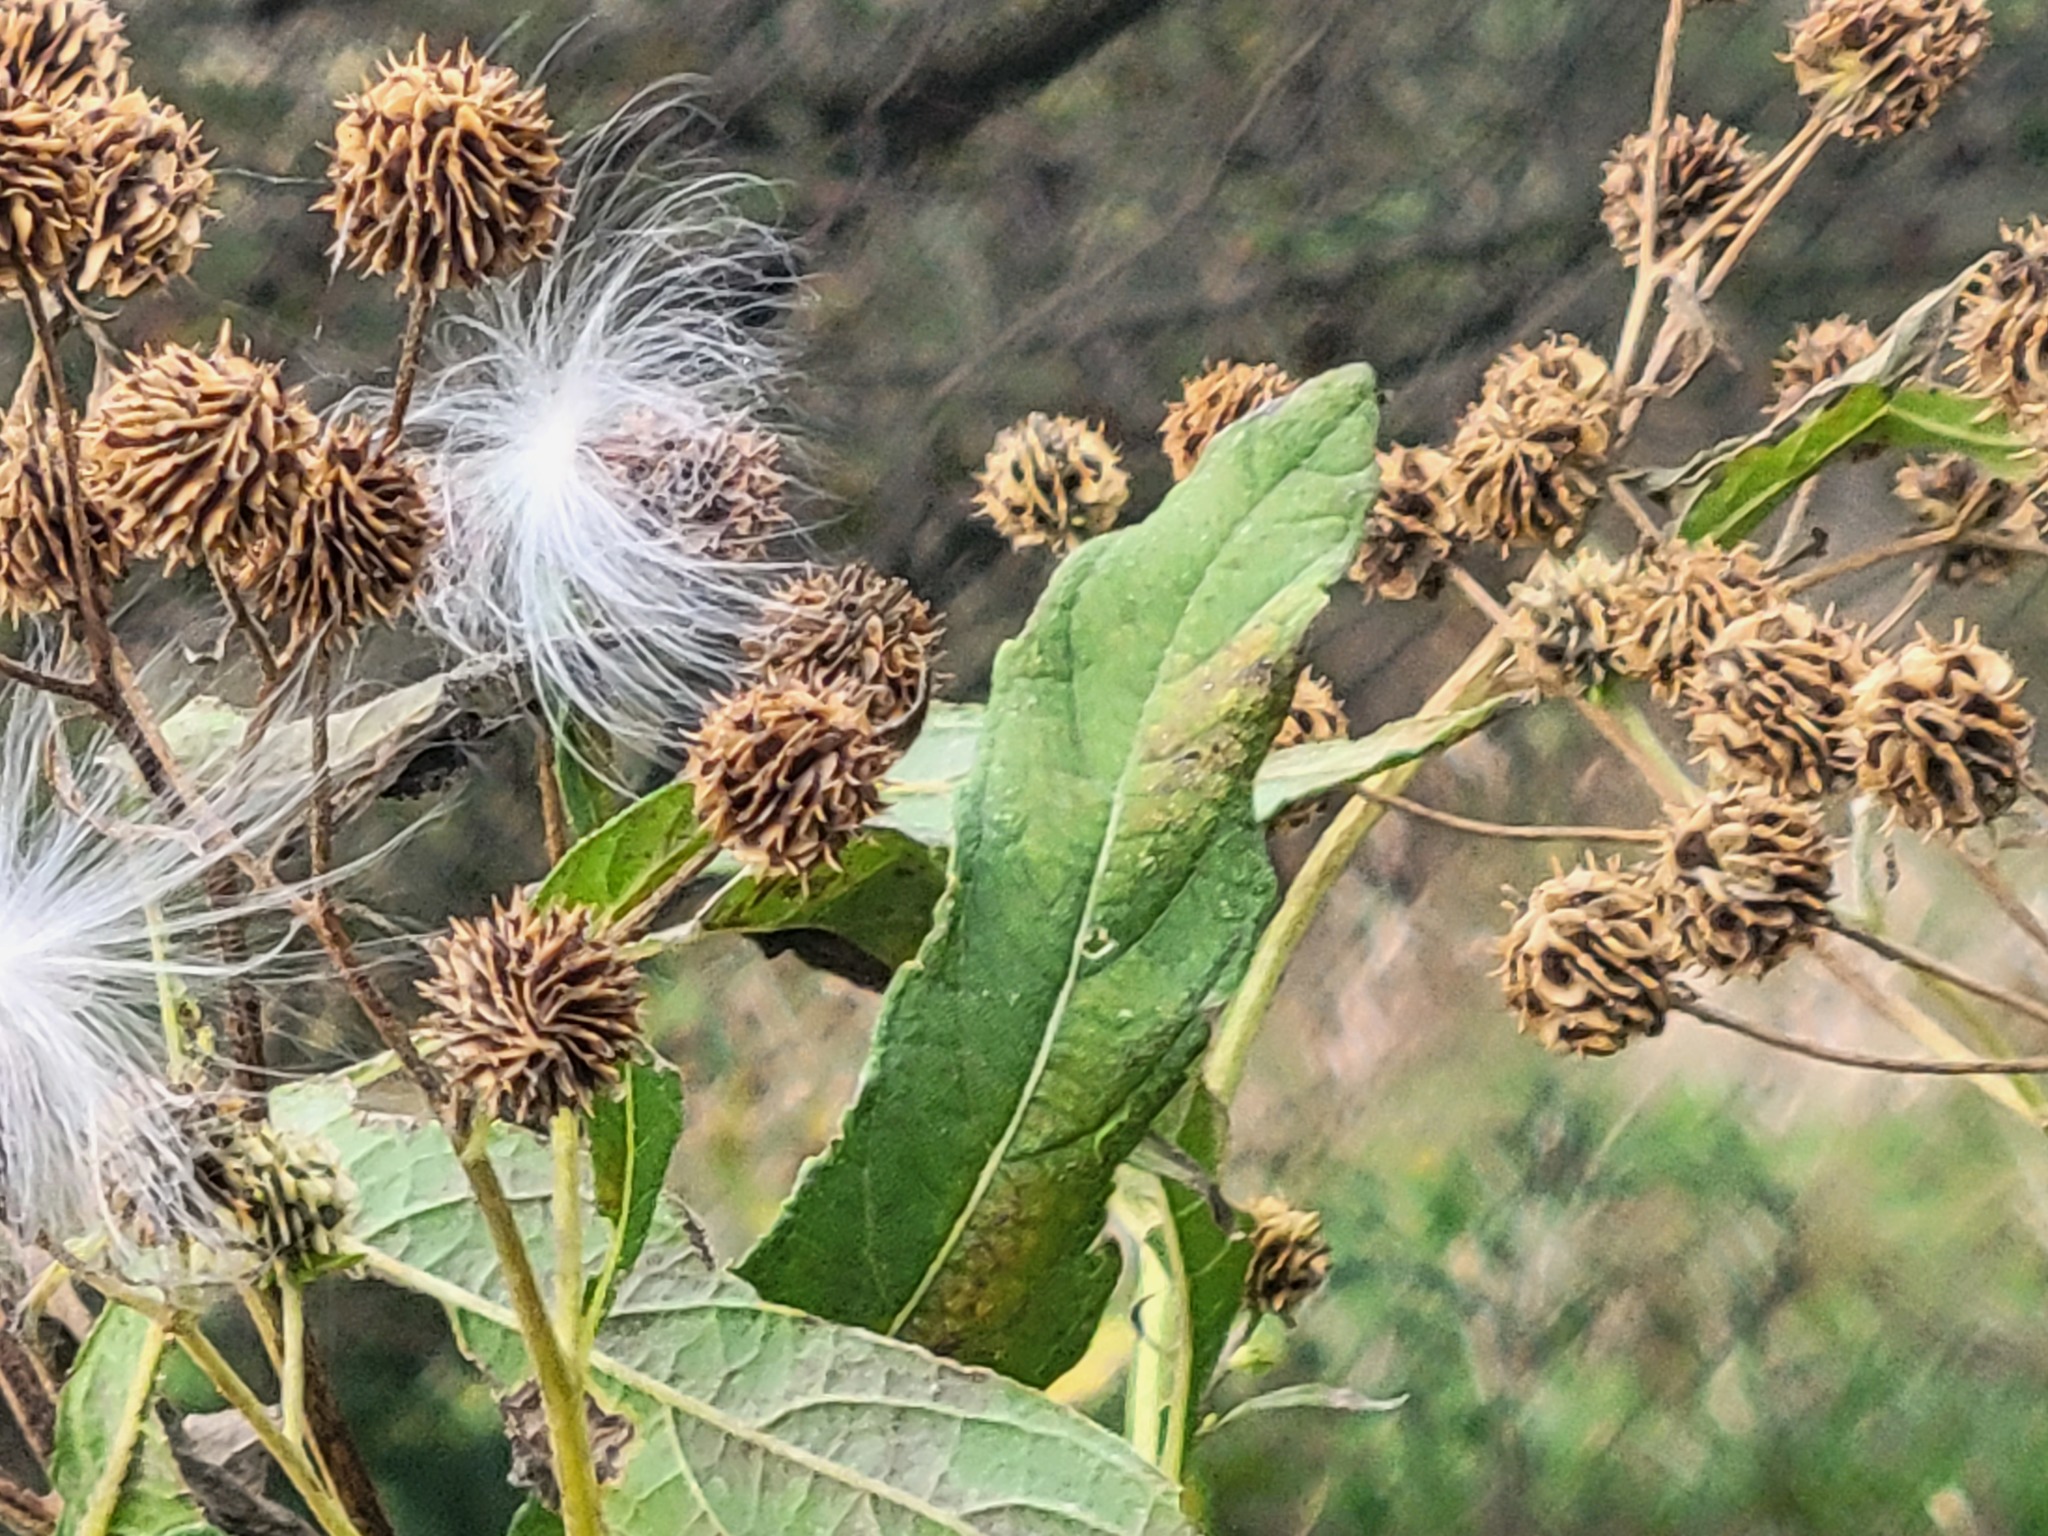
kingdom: Plantae
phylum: Tracheophyta
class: Magnoliopsida
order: Asterales
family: Asteraceae
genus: Verbesina
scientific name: Verbesina alternifolia
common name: Wingstem
